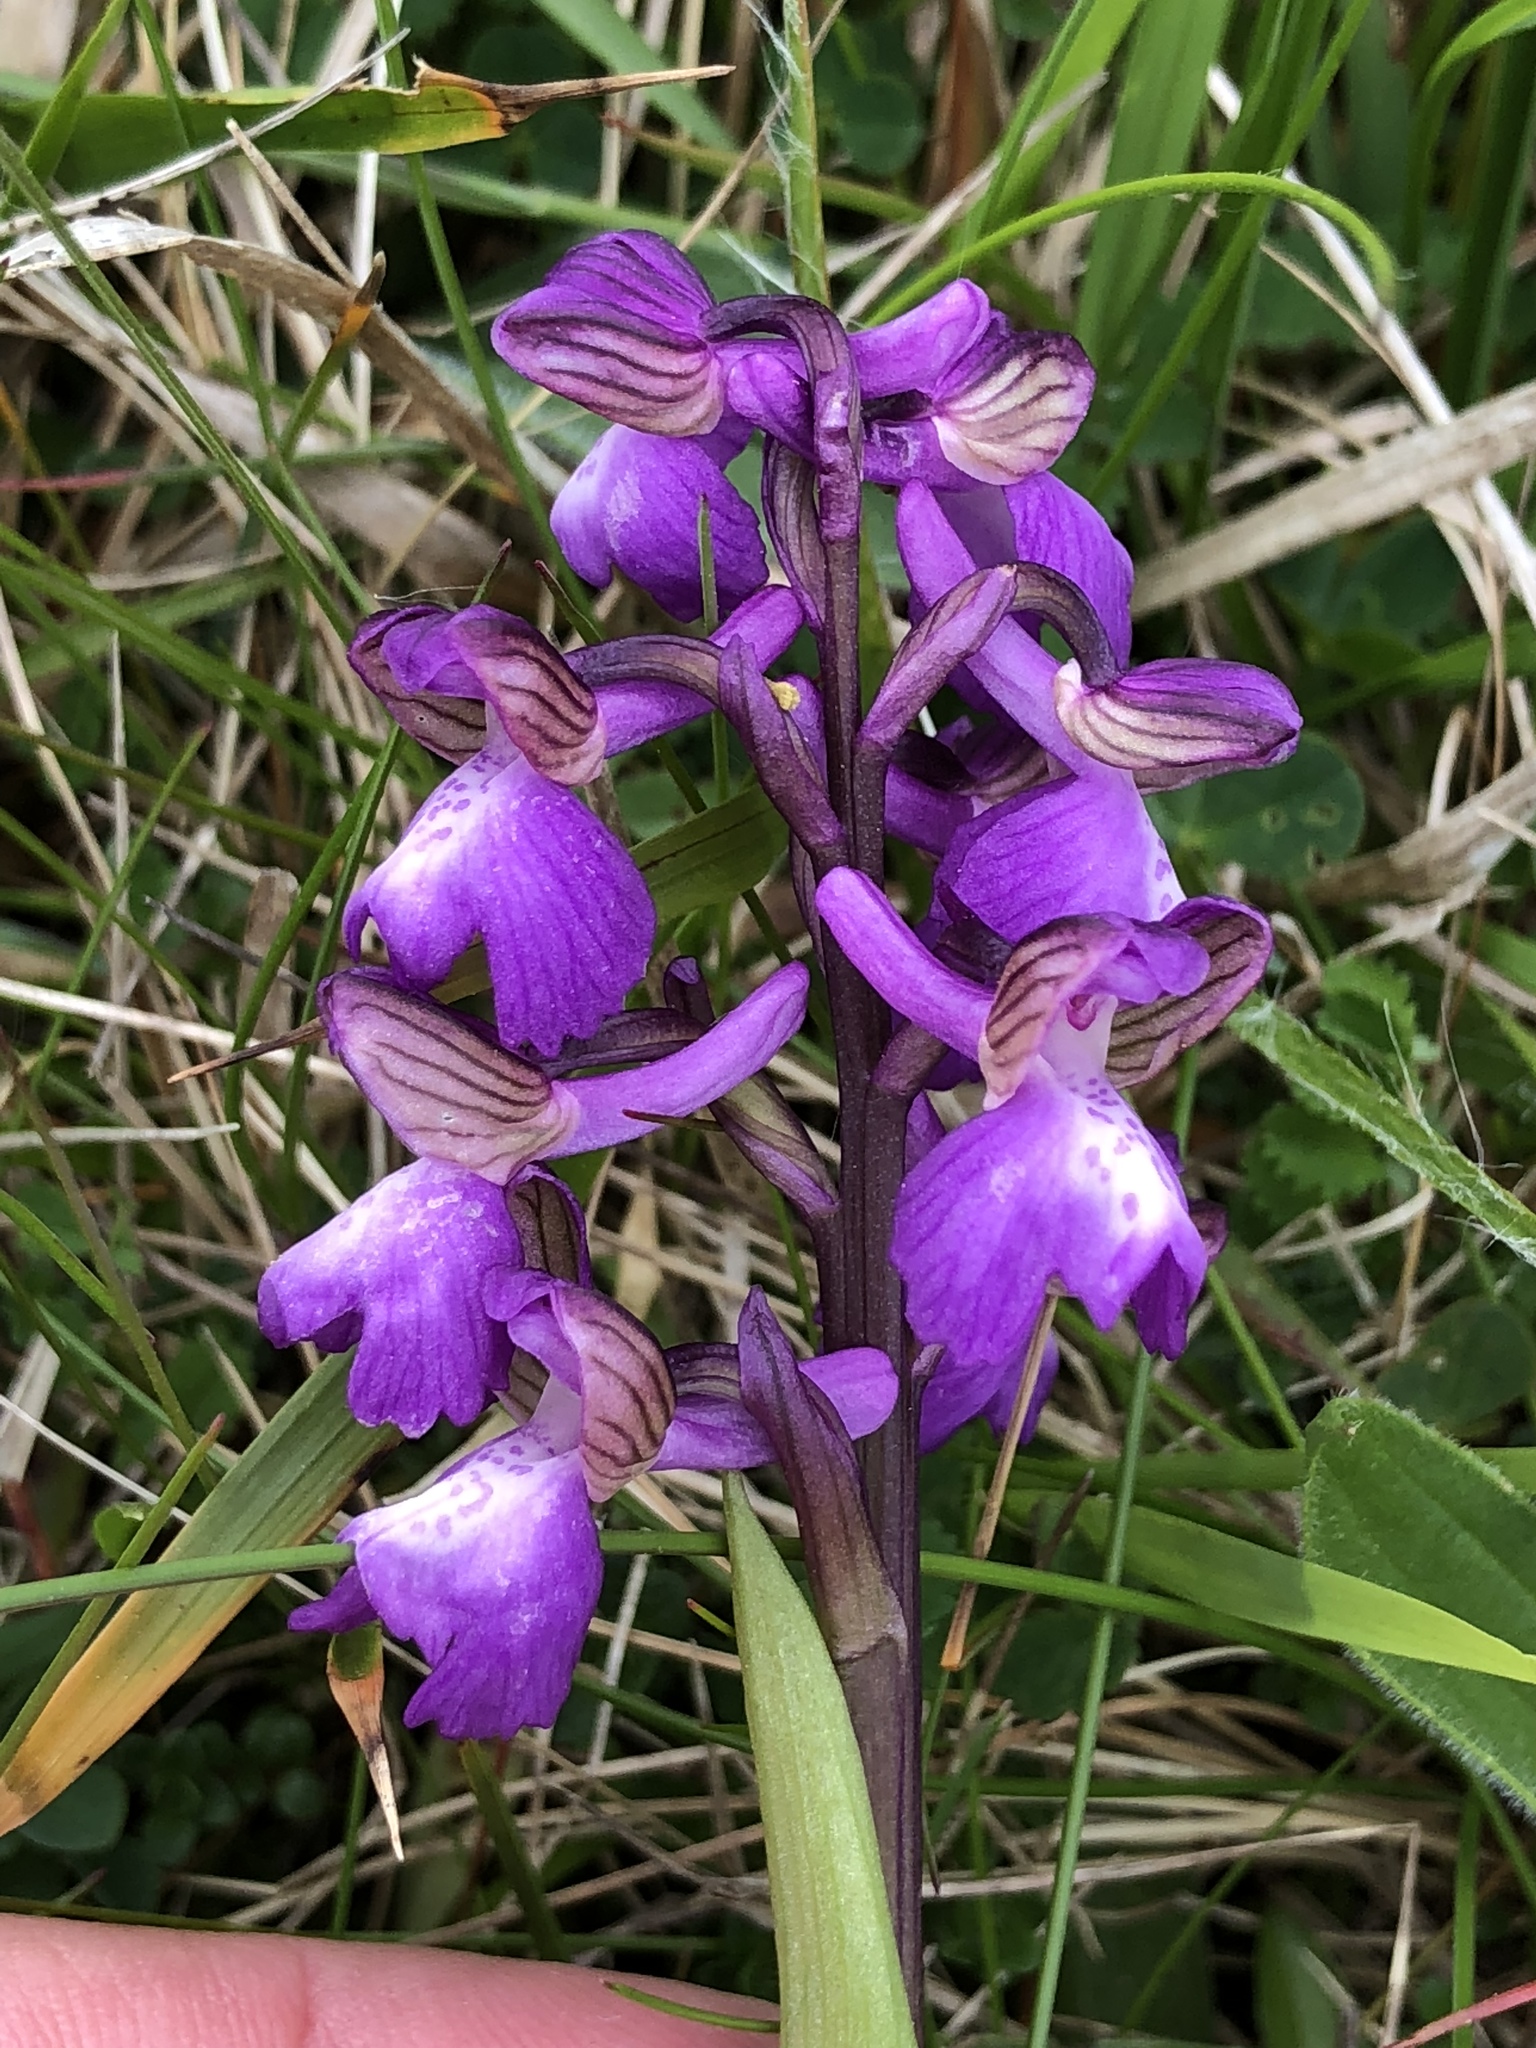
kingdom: Plantae
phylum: Tracheophyta
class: Liliopsida
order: Asparagales
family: Orchidaceae
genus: Anacamptis
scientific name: Anacamptis morio
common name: Green-winged orchid
